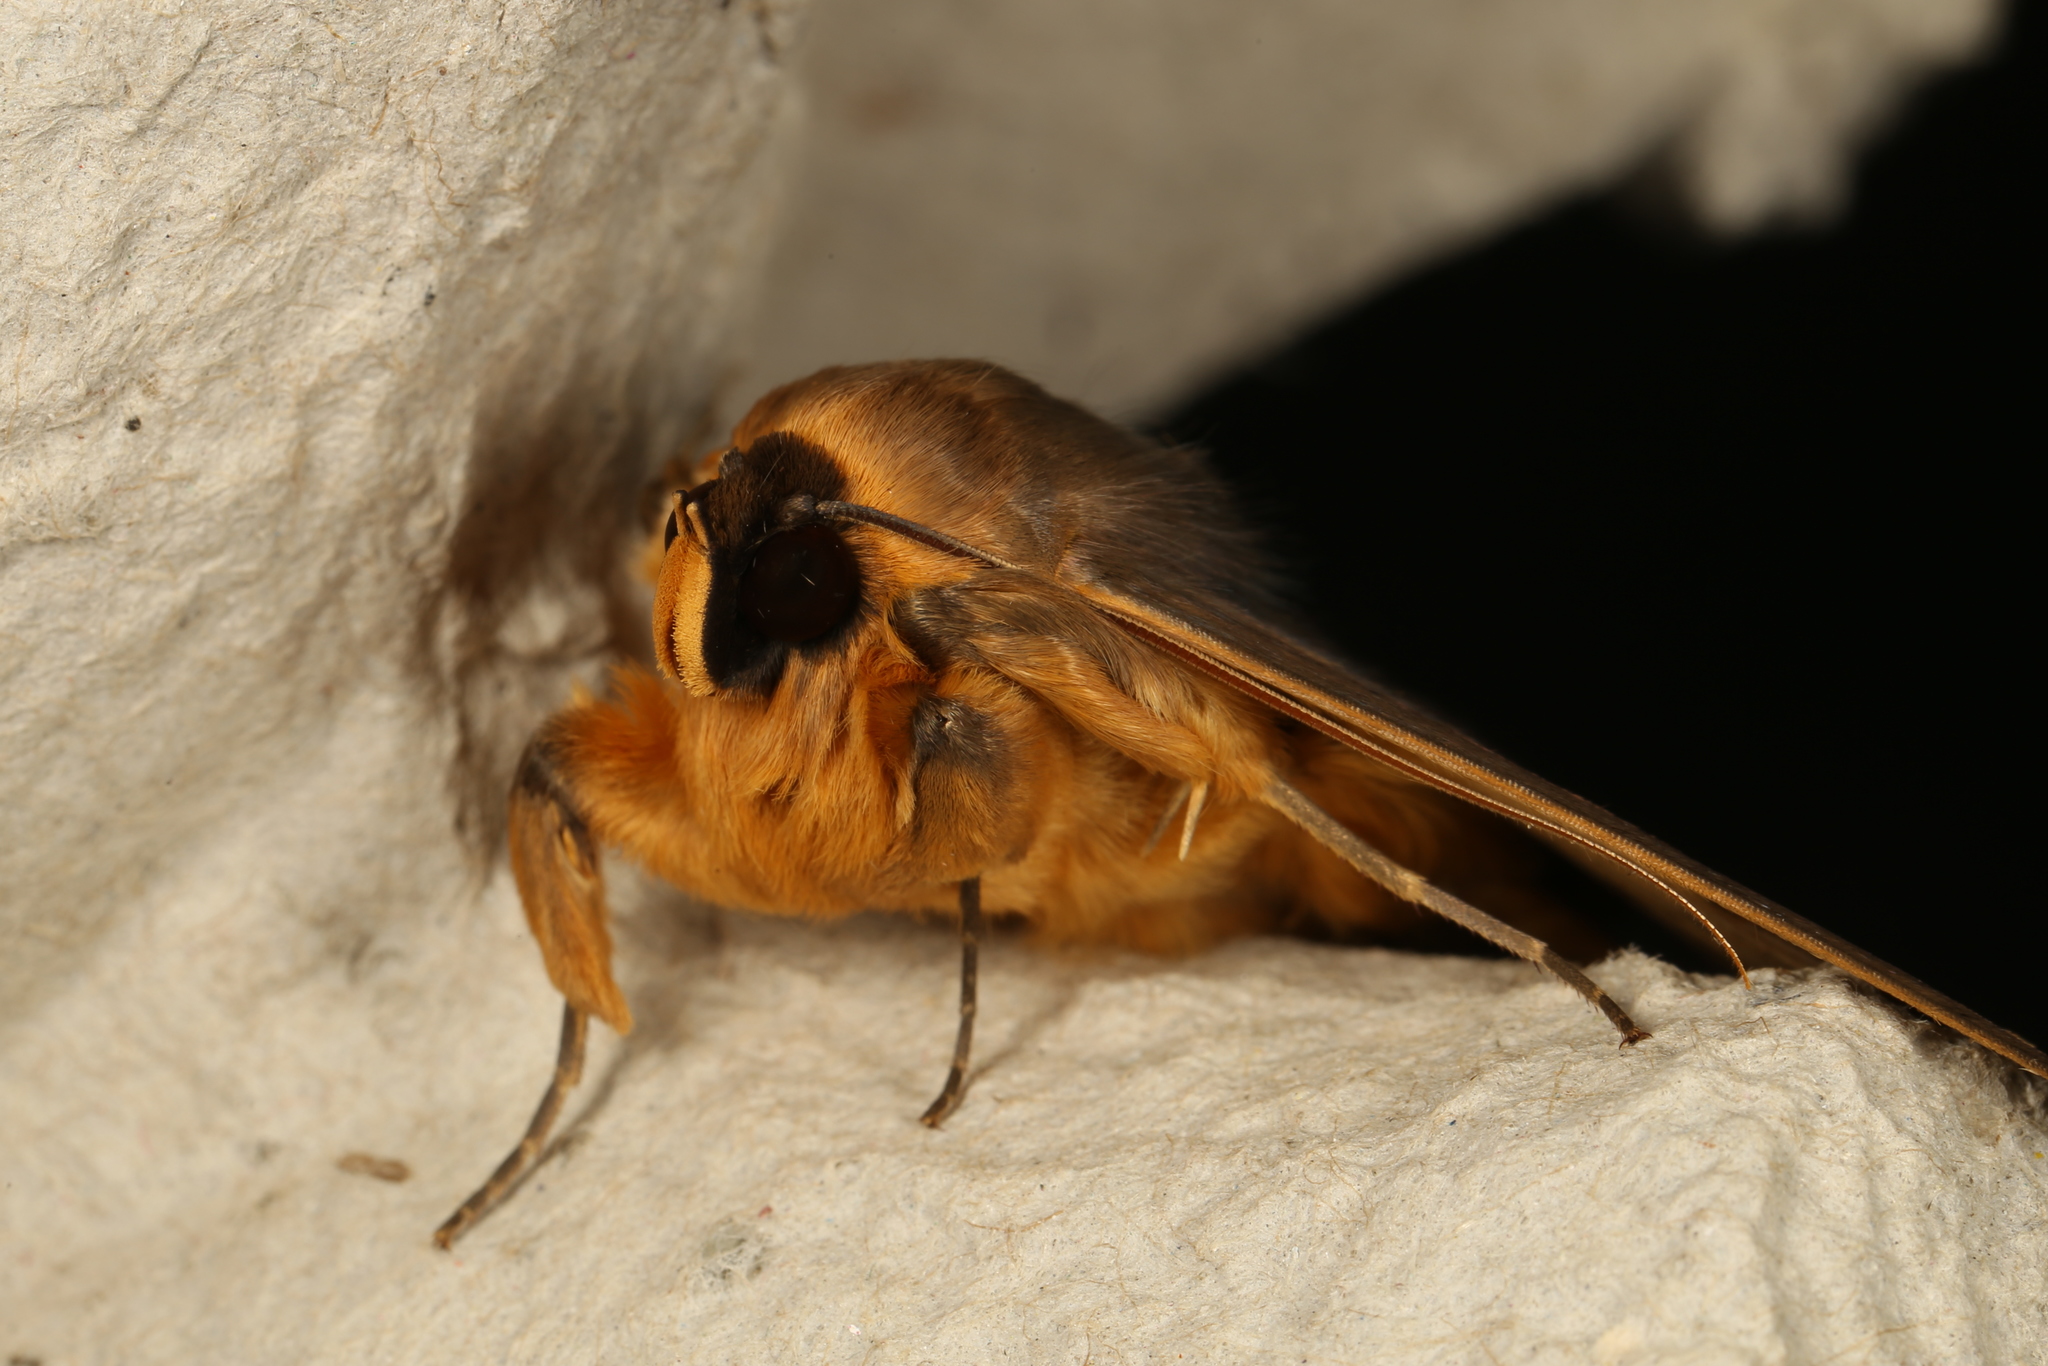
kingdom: Animalia
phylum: Arthropoda
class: Insecta
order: Lepidoptera
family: Erebidae
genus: Dasypodia
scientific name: Dasypodia selenophora
